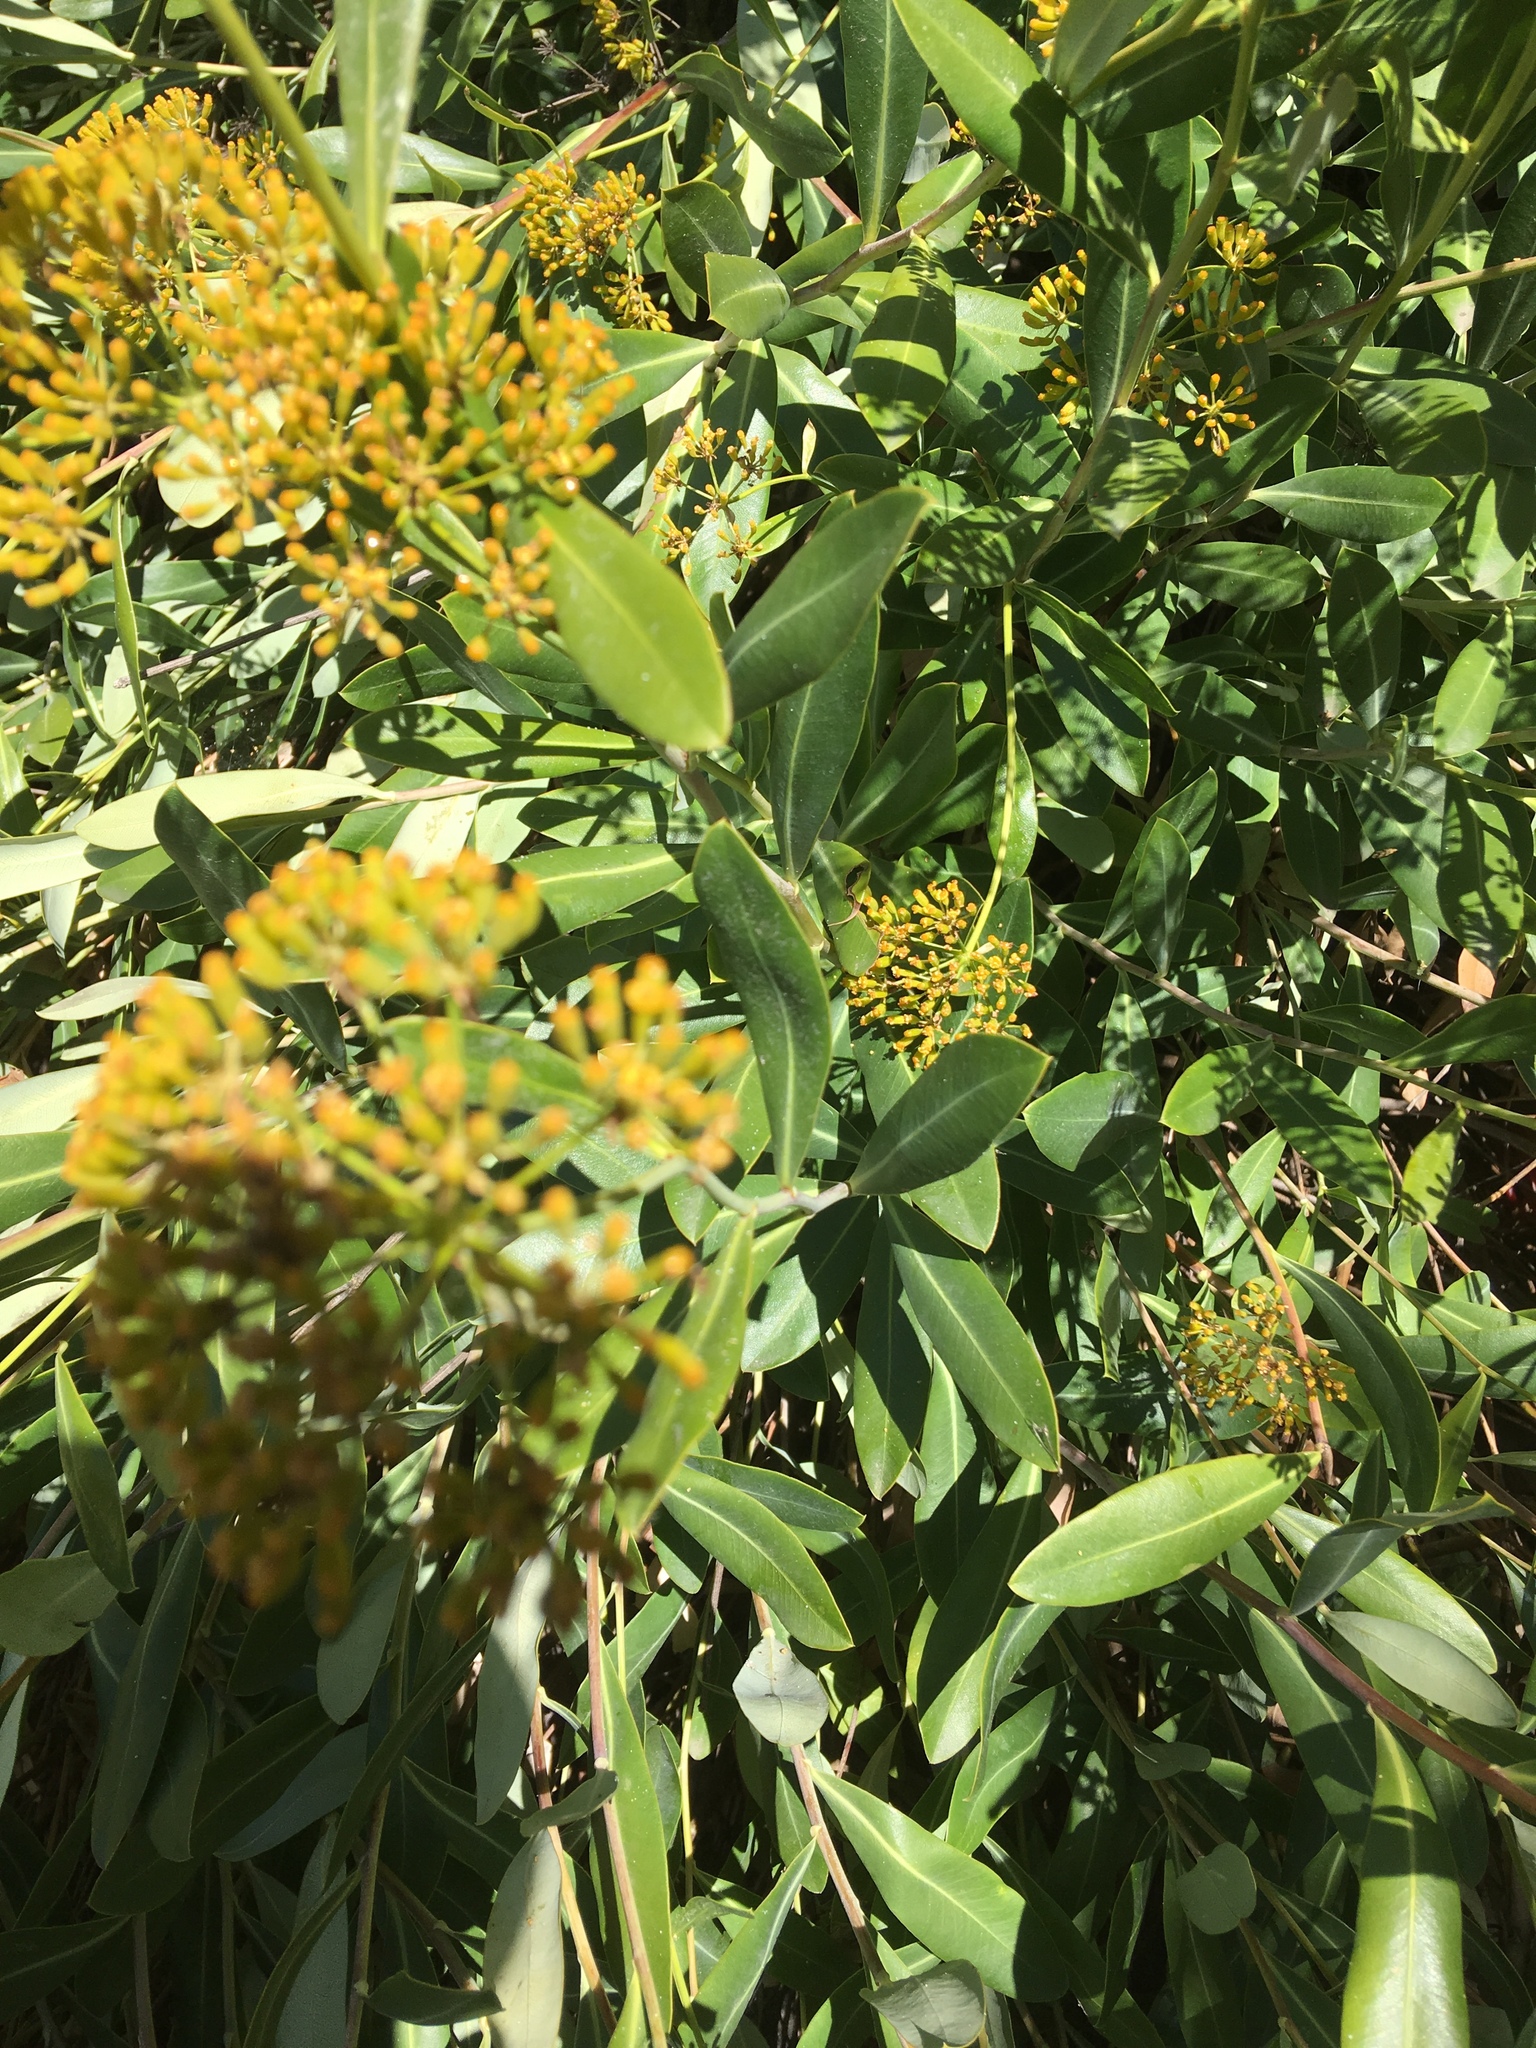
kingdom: Plantae
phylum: Tracheophyta
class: Magnoliopsida
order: Apiales
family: Apiaceae
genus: Bupleurum
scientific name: Bupleurum fruticosum
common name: Shrubby hare's-ear
